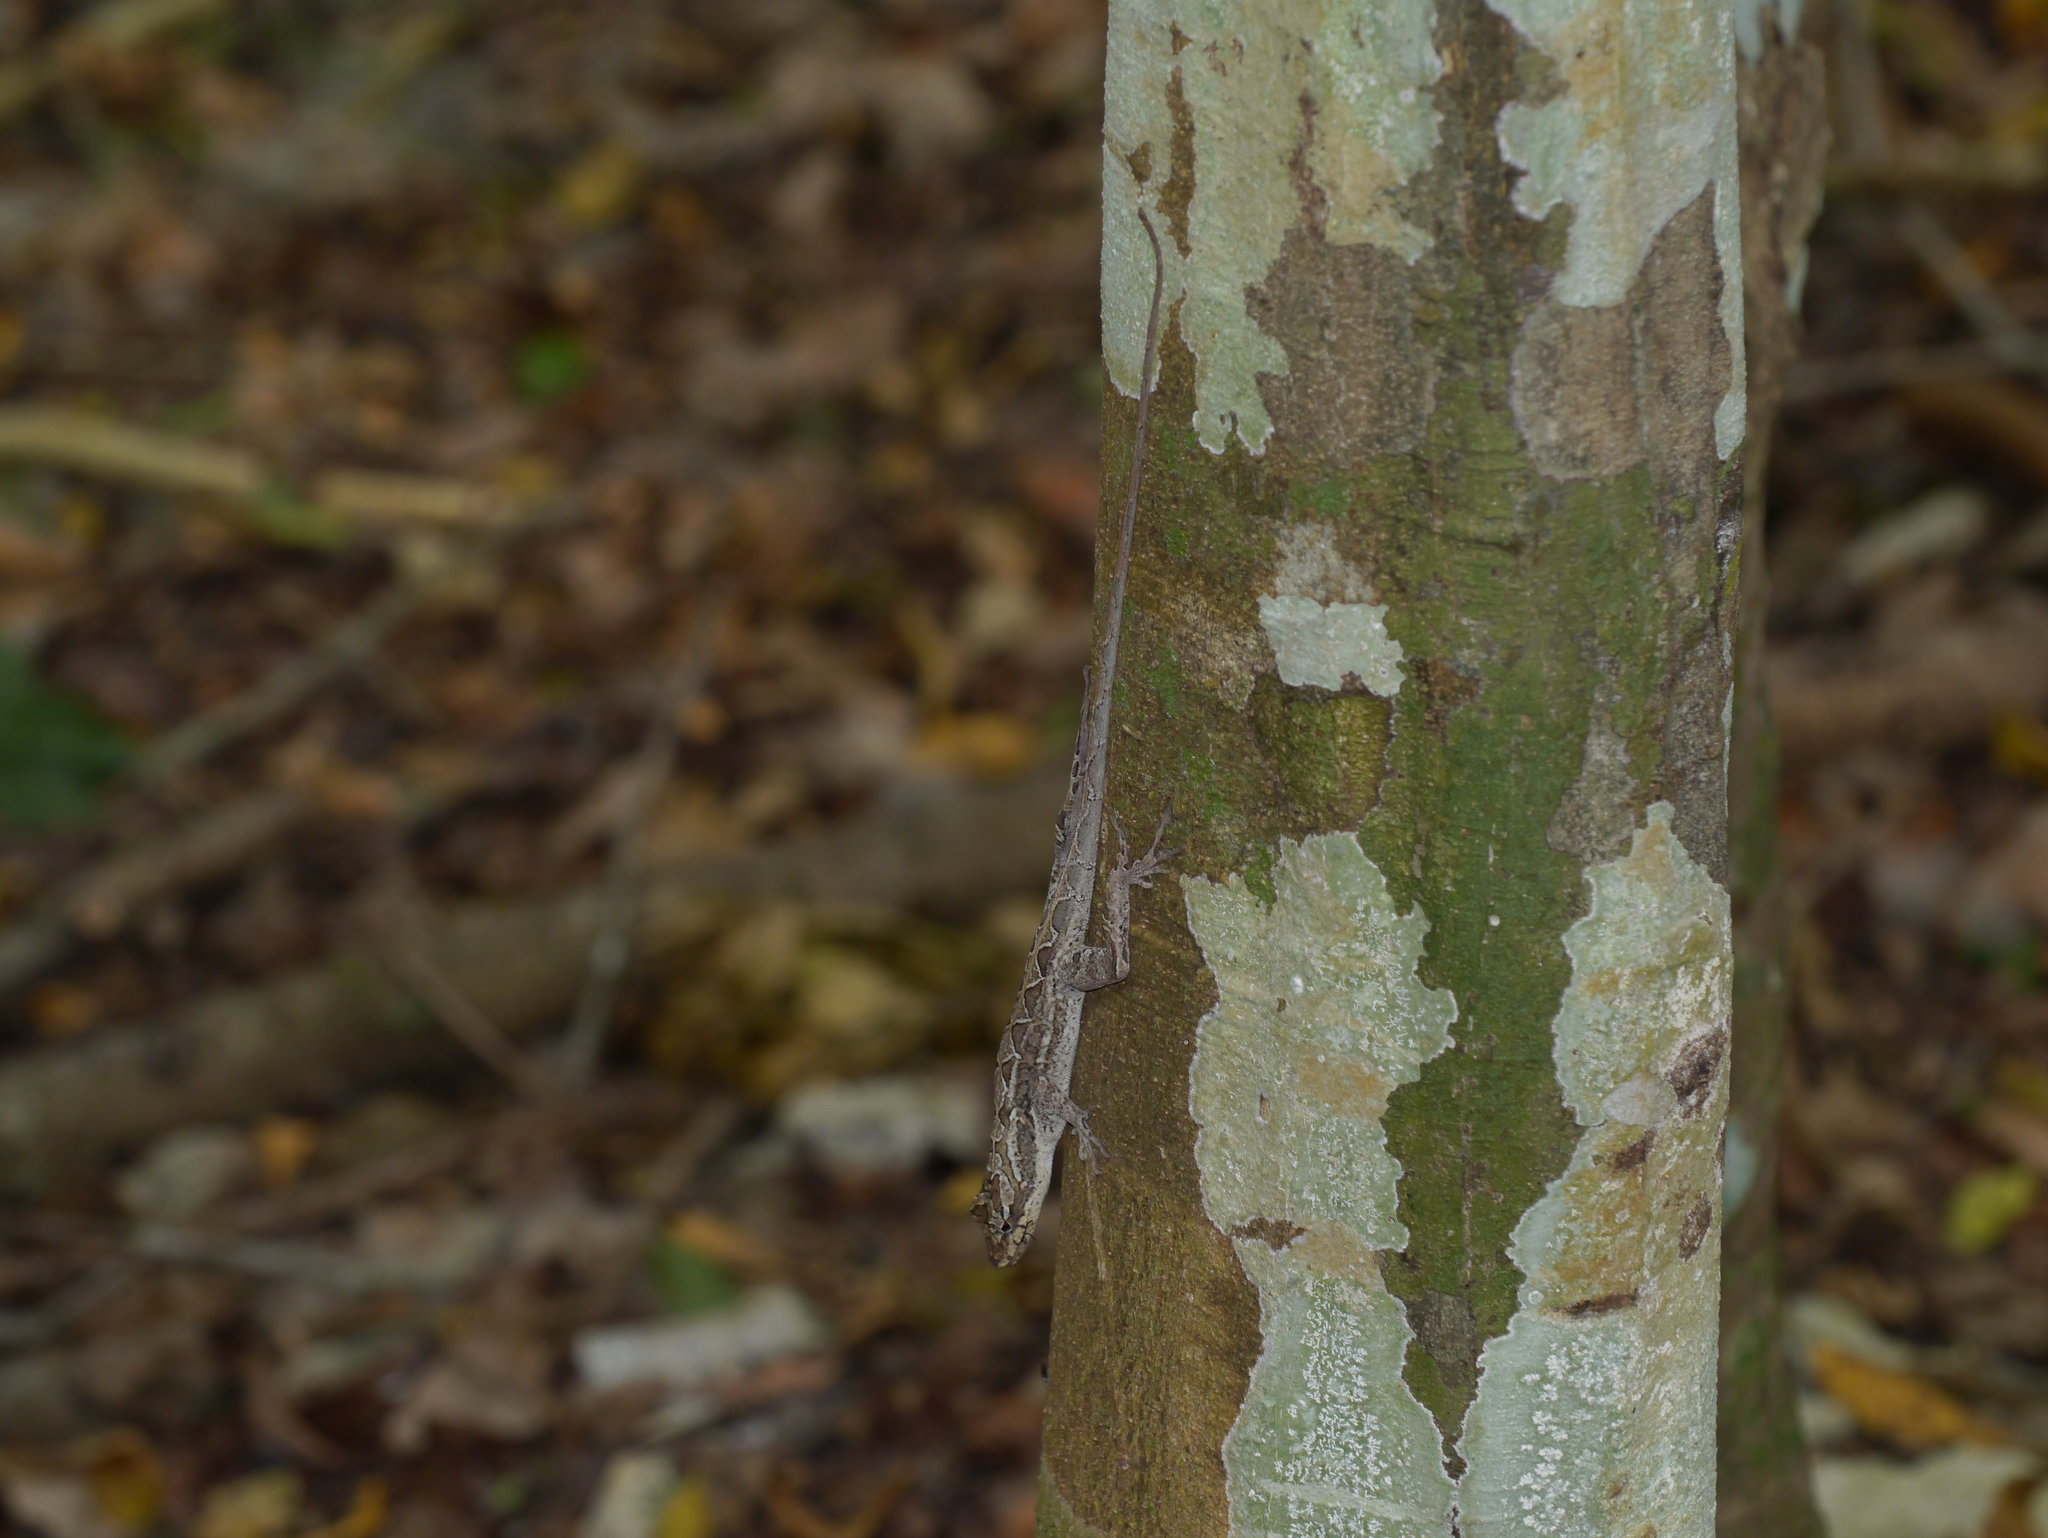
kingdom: Animalia
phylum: Chordata
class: Squamata
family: Dactyloidae
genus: Anolis
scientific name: Anolis lemurinus
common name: Ghost anole
